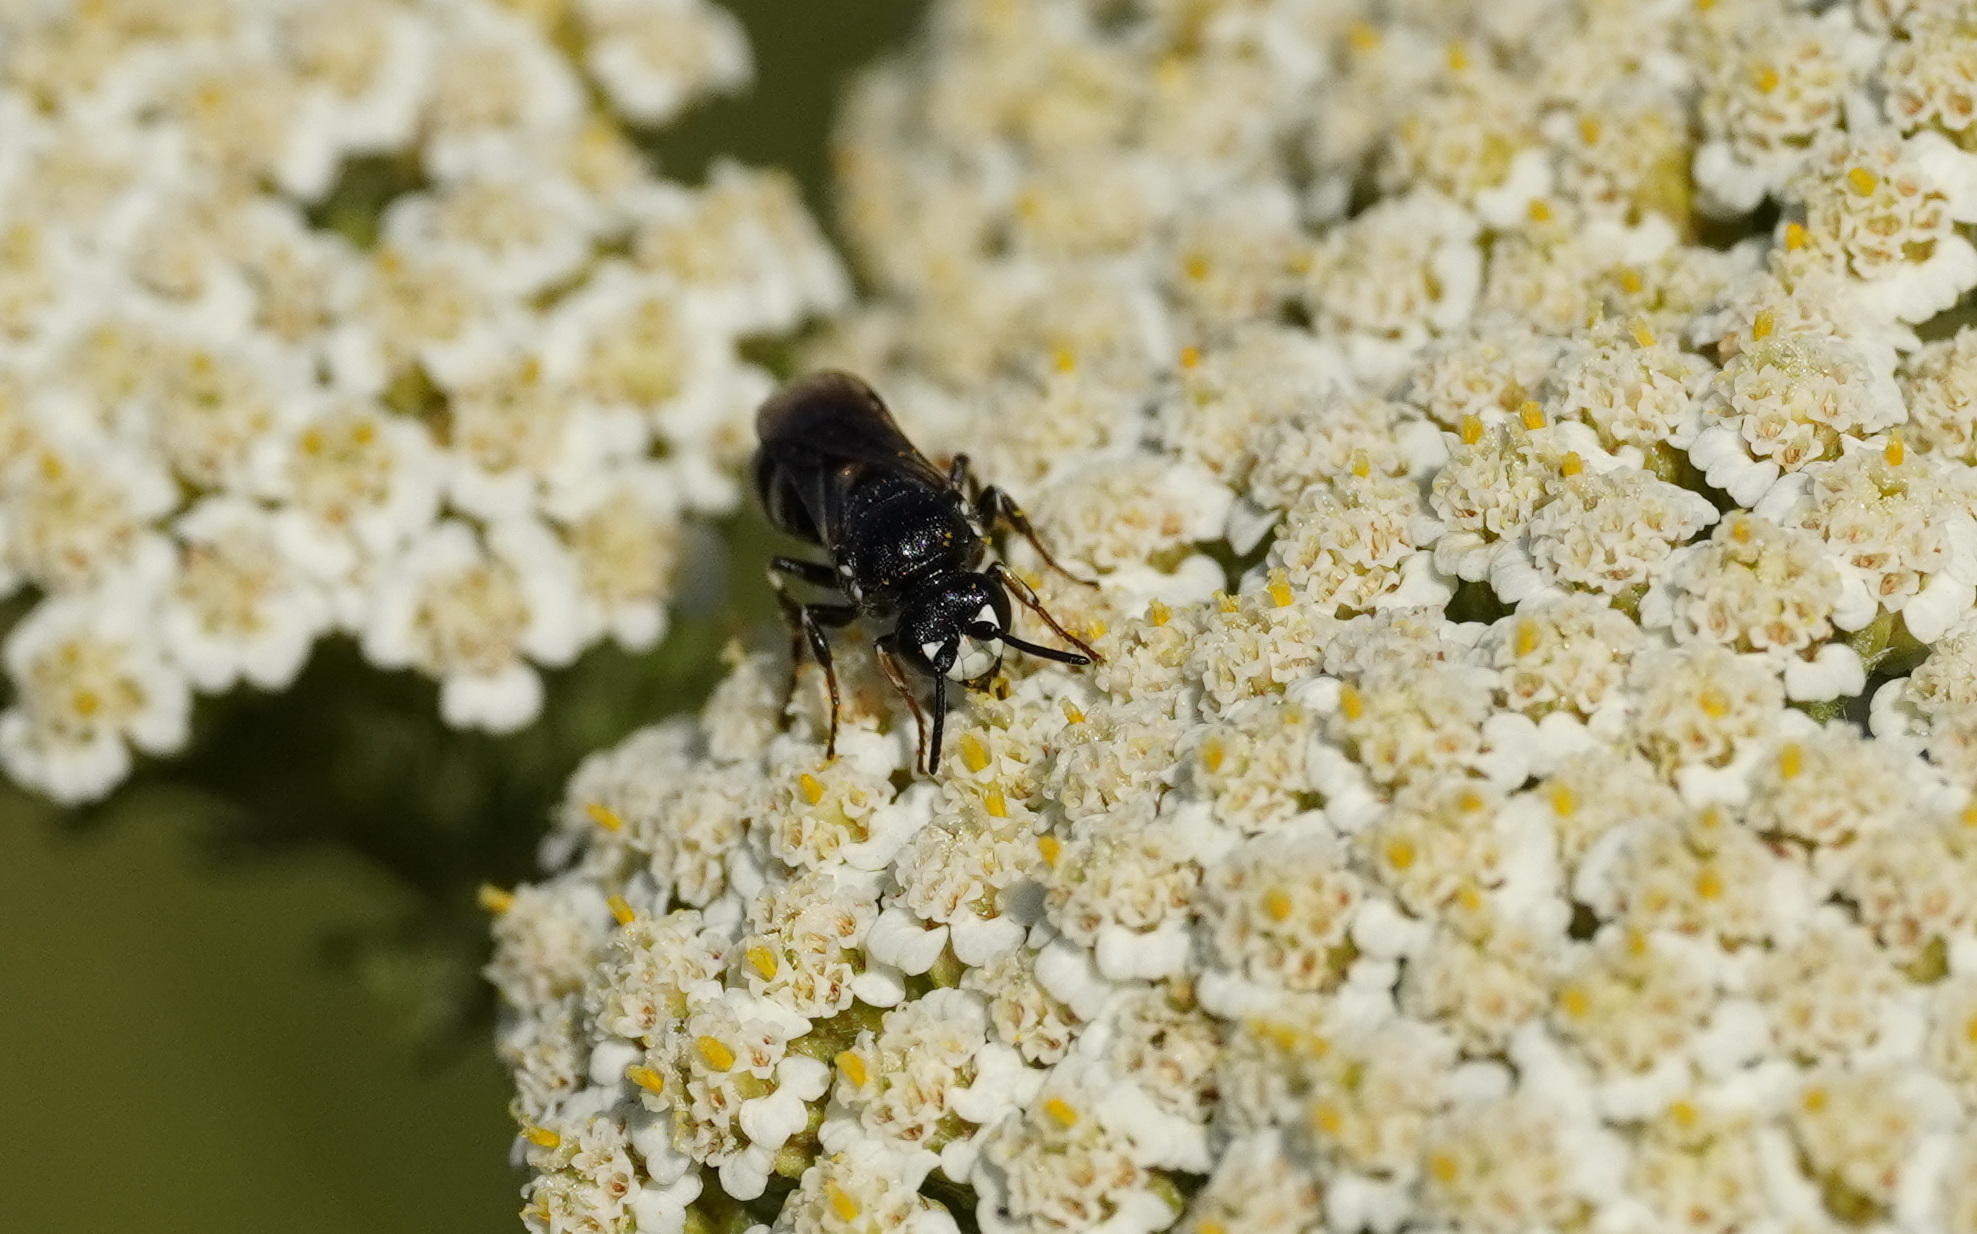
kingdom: Animalia
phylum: Arthropoda
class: Insecta
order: Hymenoptera
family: Colletidae
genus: Hylaeus
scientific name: Hylaeus nigritus
